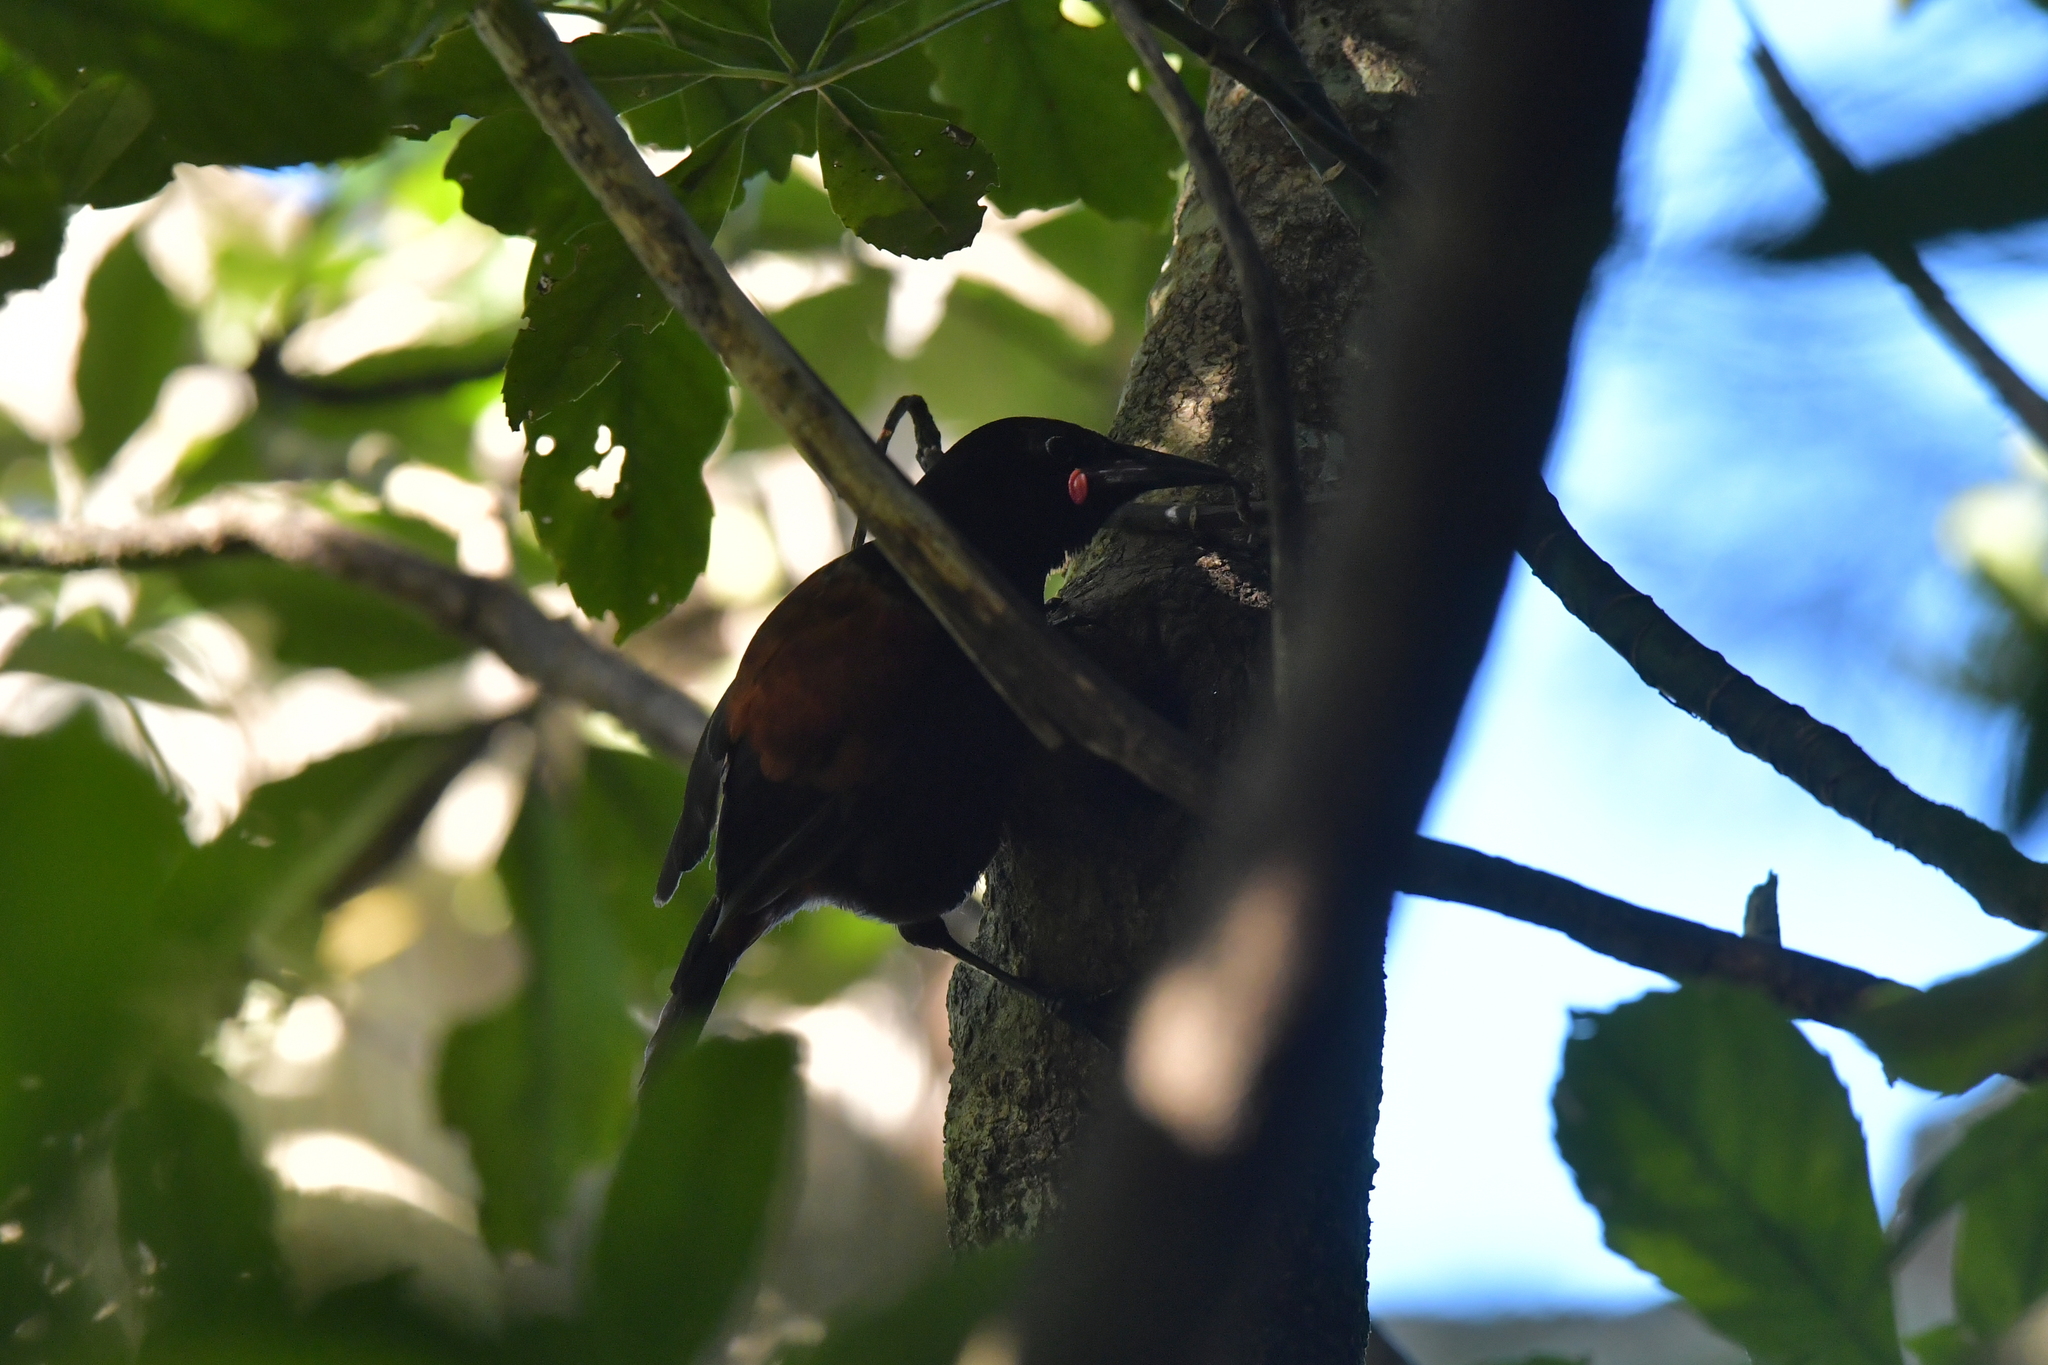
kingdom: Animalia
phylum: Chordata
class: Aves
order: Passeriformes
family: Callaeatidae
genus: Philesturnus
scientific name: Philesturnus carunculatus
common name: South island saddleback
